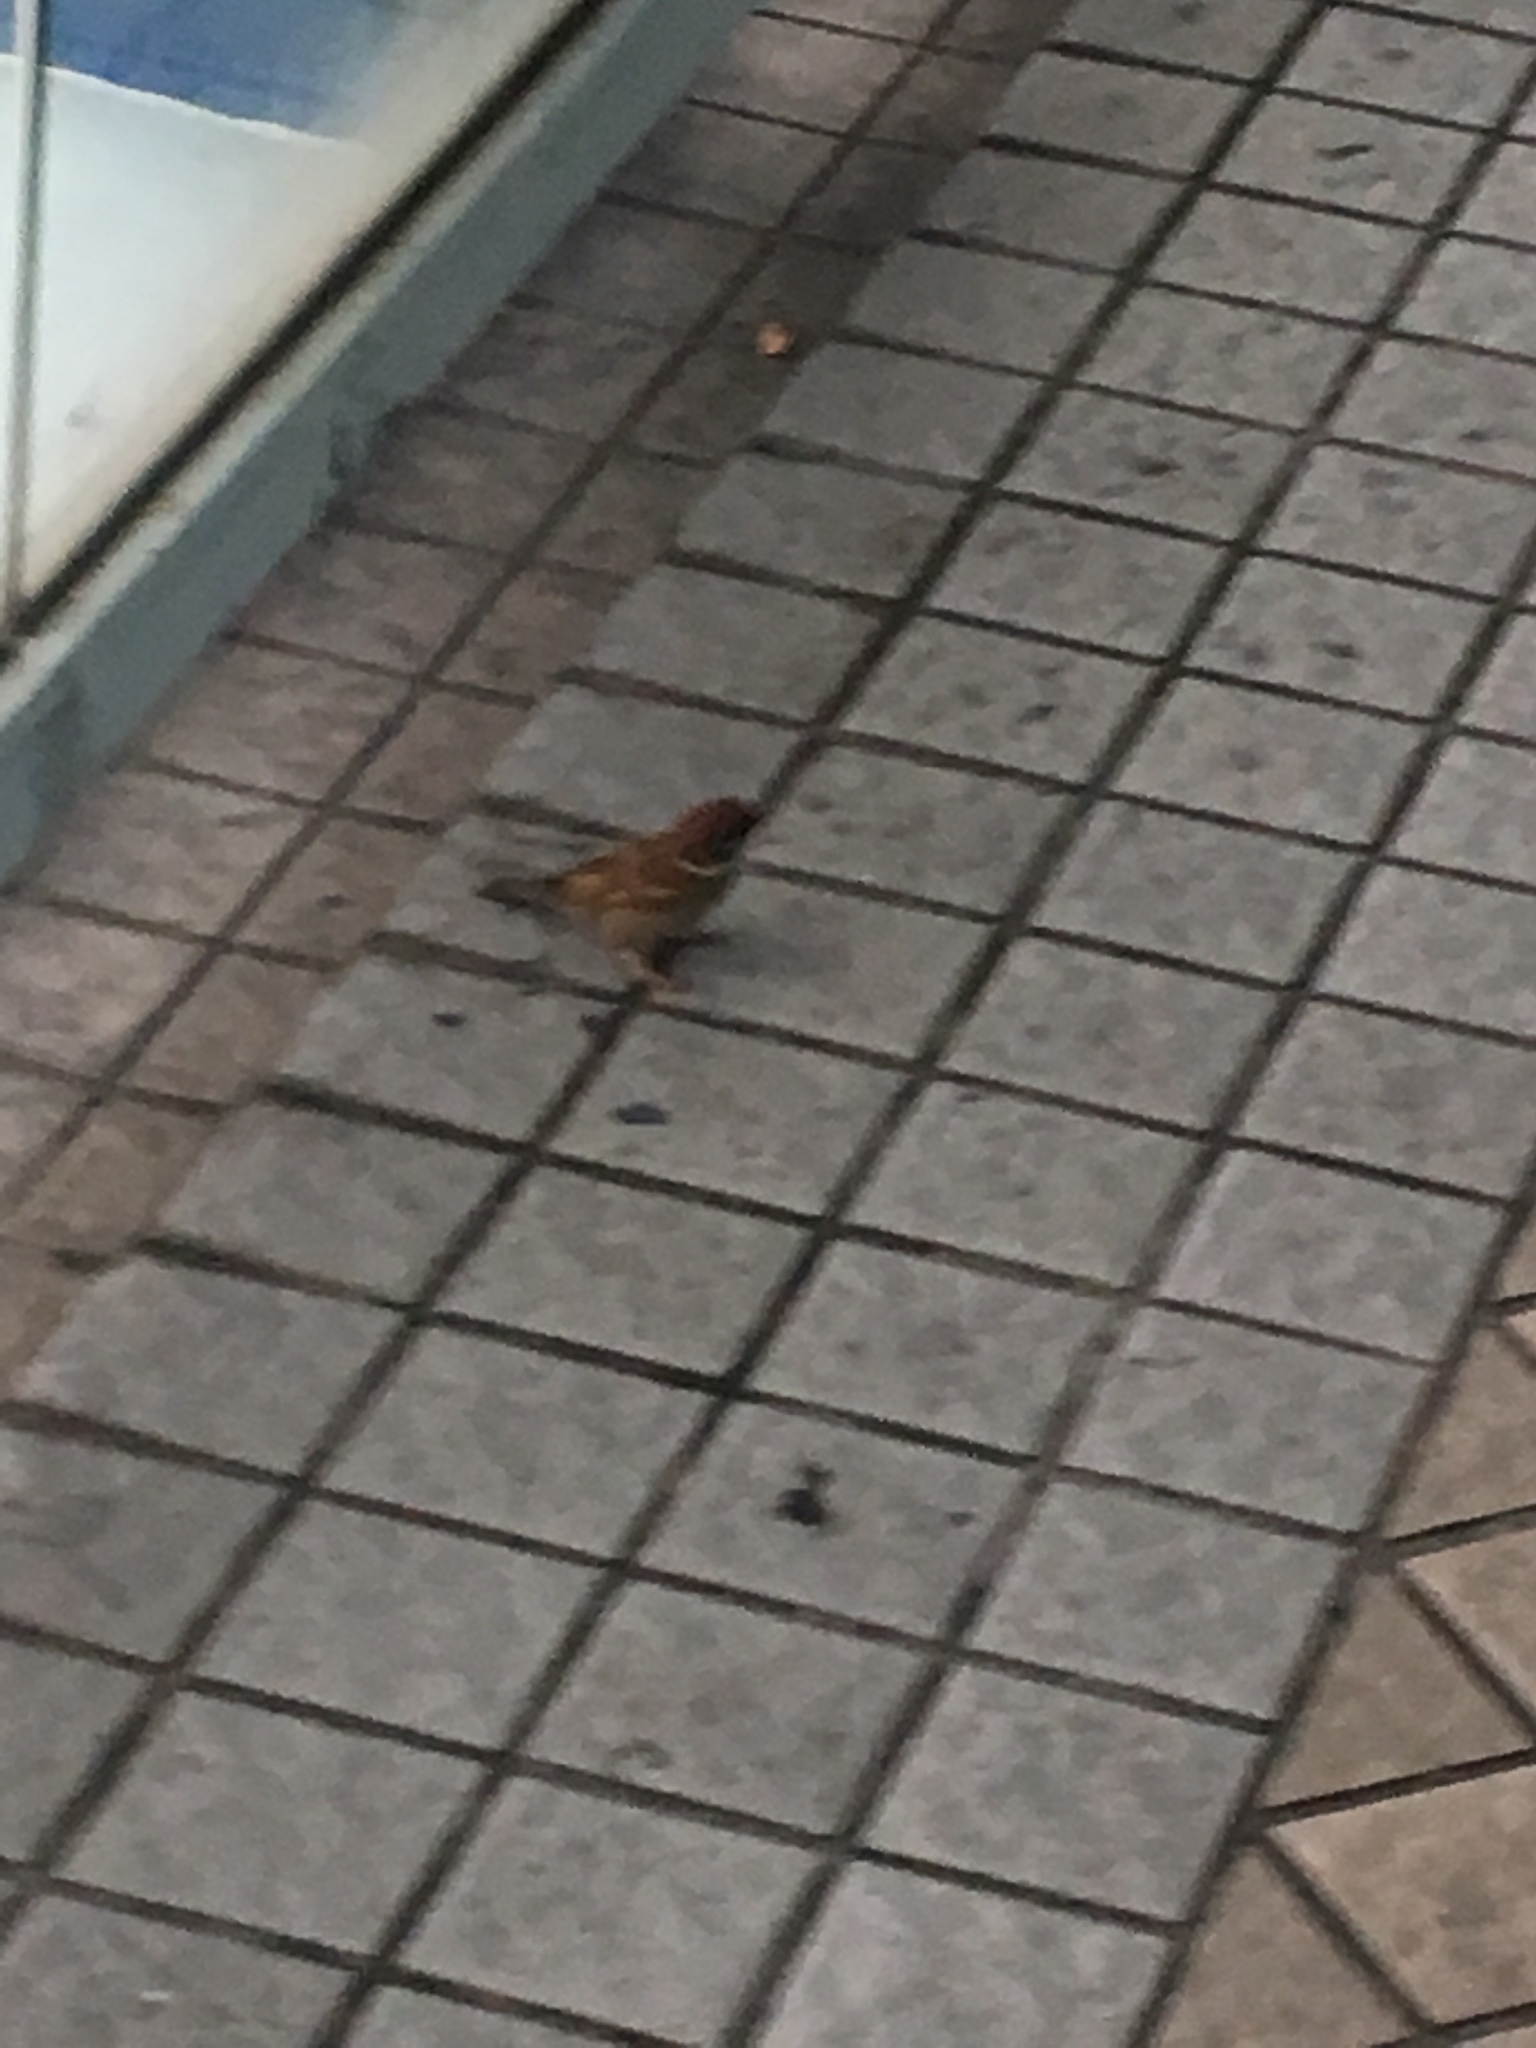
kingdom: Animalia
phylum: Chordata
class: Aves
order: Passeriformes
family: Passeridae
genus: Passer
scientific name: Passer montanus
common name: Eurasian tree sparrow
